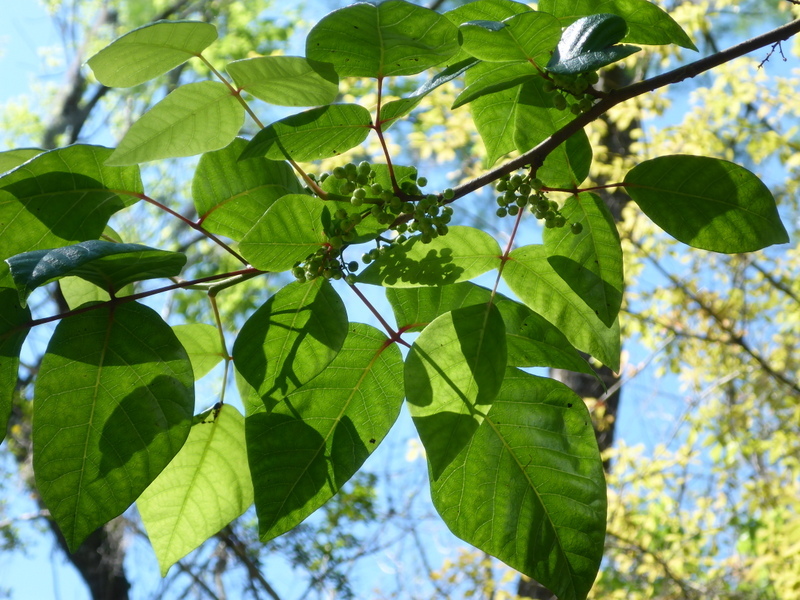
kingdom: Plantae
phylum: Tracheophyta
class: Magnoliopsida
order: Sapindales
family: Anacardiaceae
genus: Toxicodendron
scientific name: Toxicodendron radicans
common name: Poison ivy
